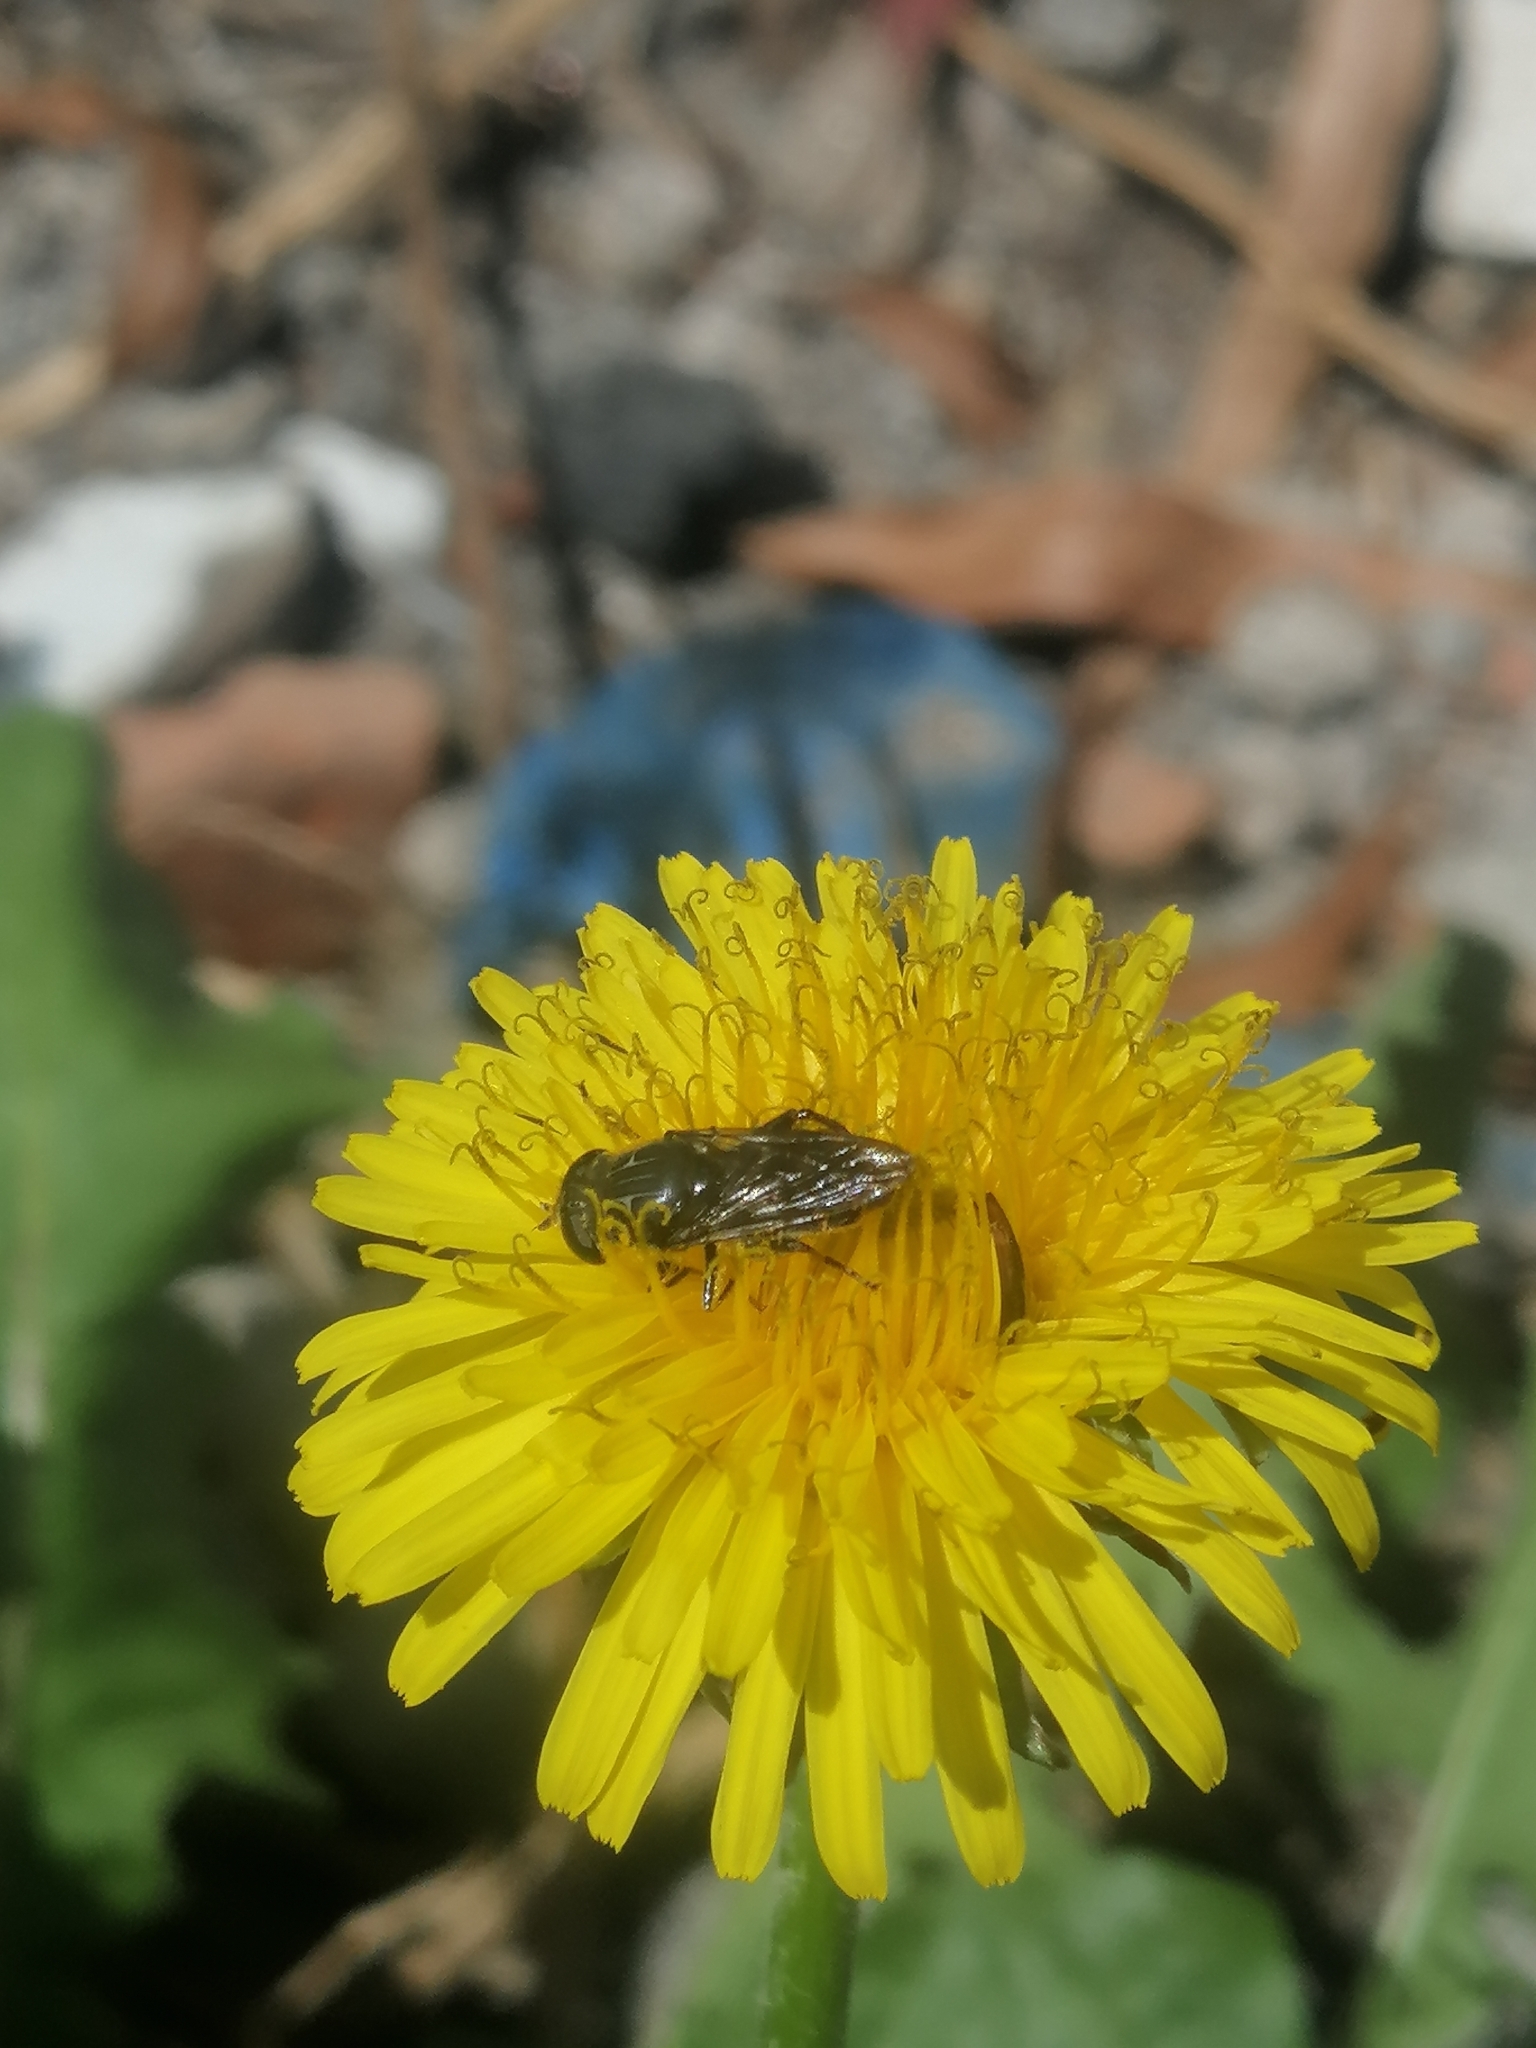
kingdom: Animalia
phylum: Arthropoda
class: Insecta
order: Diptera
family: Syrphidae
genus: Asemosyrphus
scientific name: Asemosyrphus
